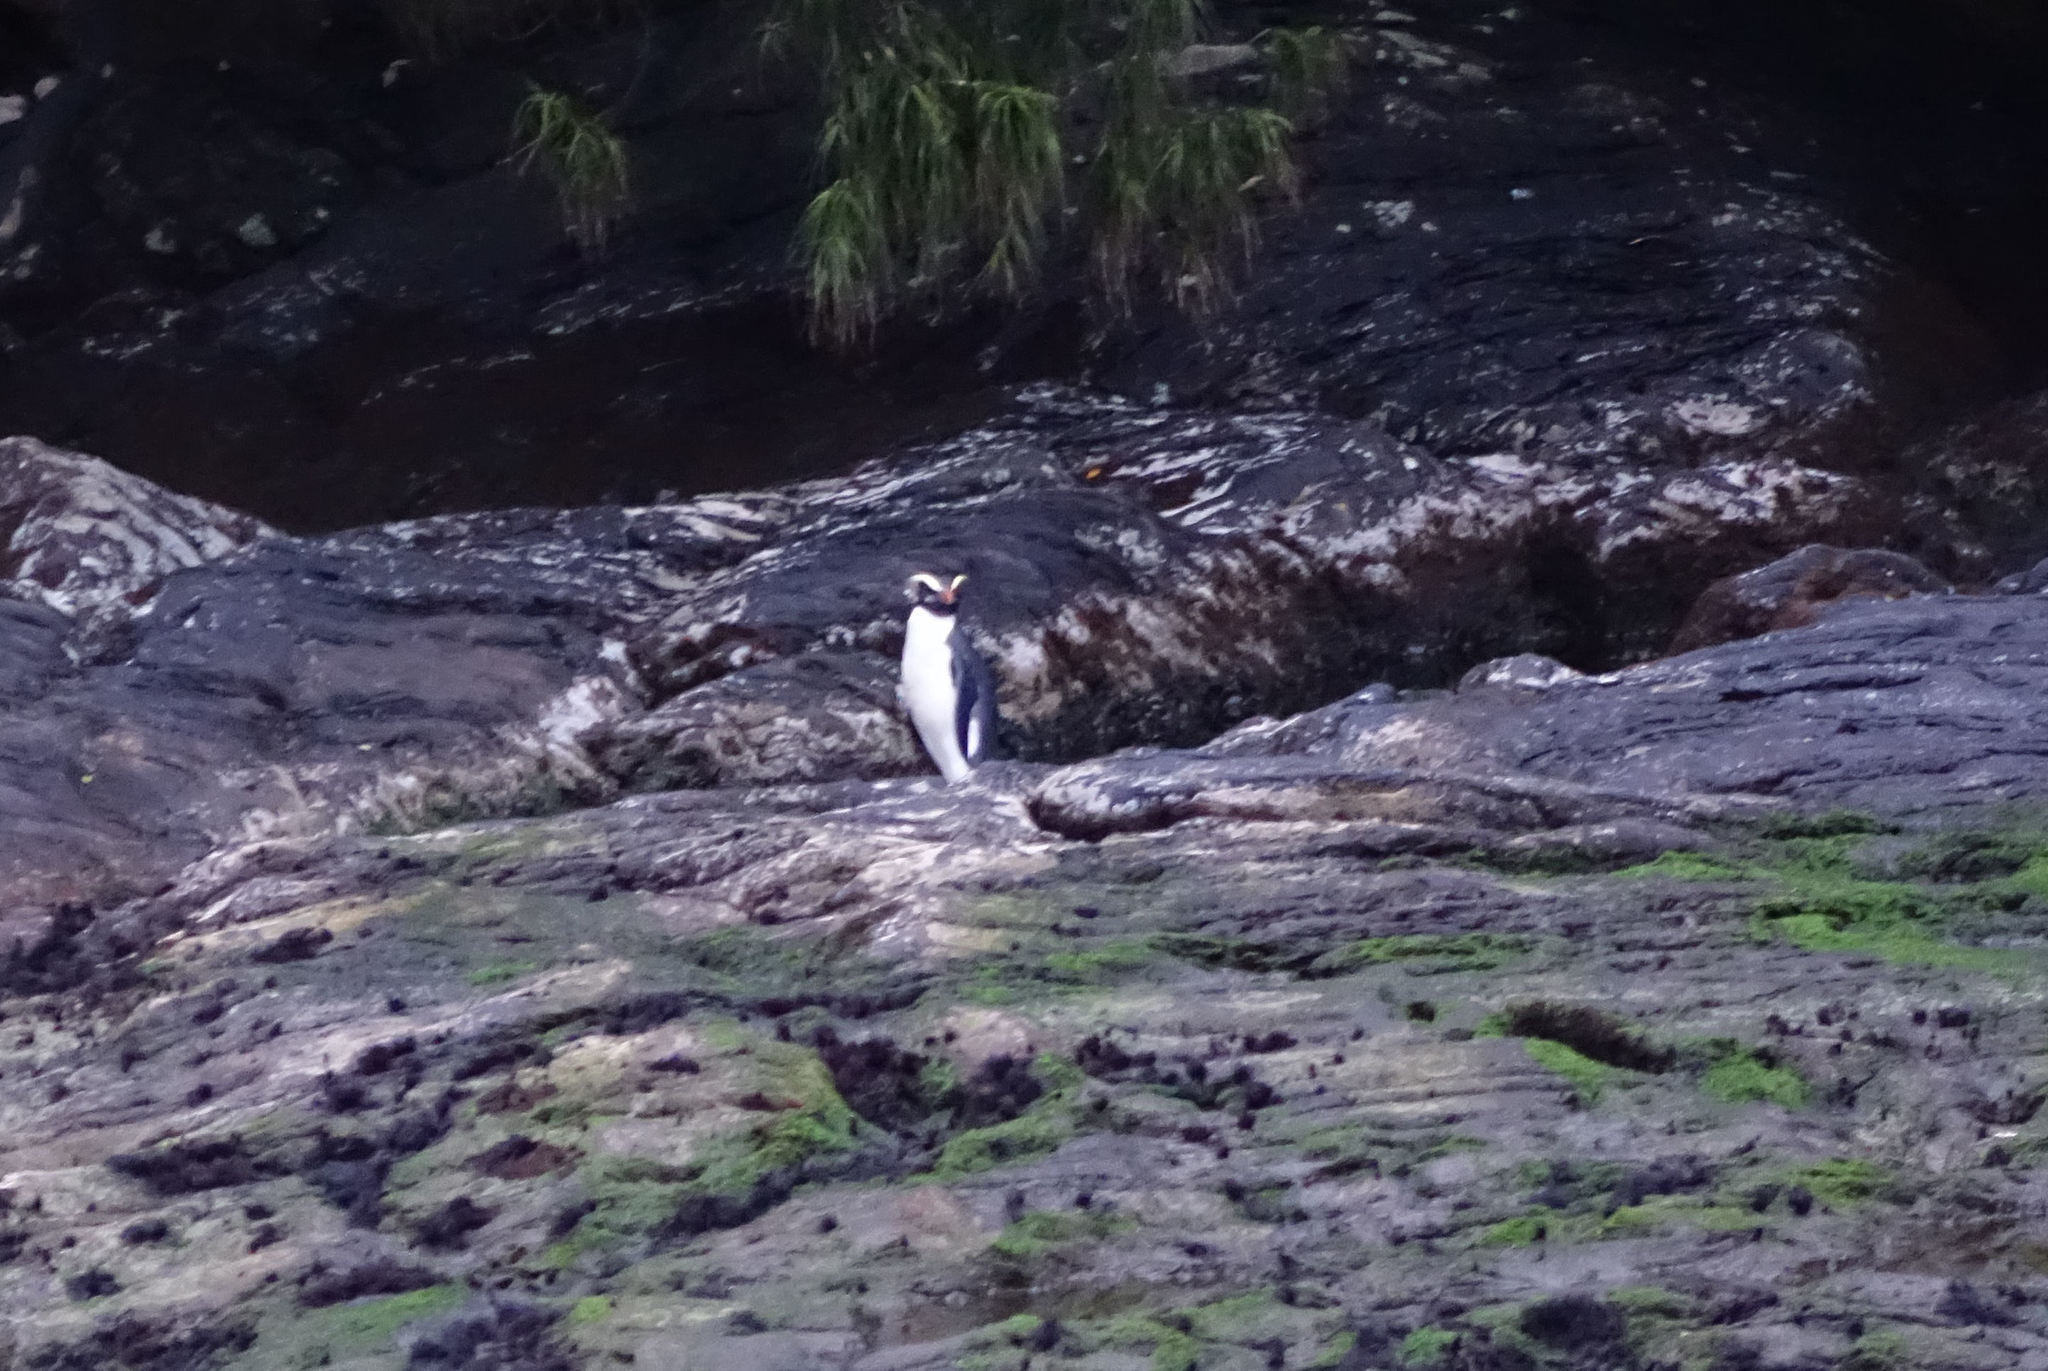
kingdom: Animalia
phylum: Chordata
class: Aves
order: Sphenisciformes
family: Spheniscidae
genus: Eudyptes
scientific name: Eudyptes pachyrhynchus
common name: Fiordland penguin
